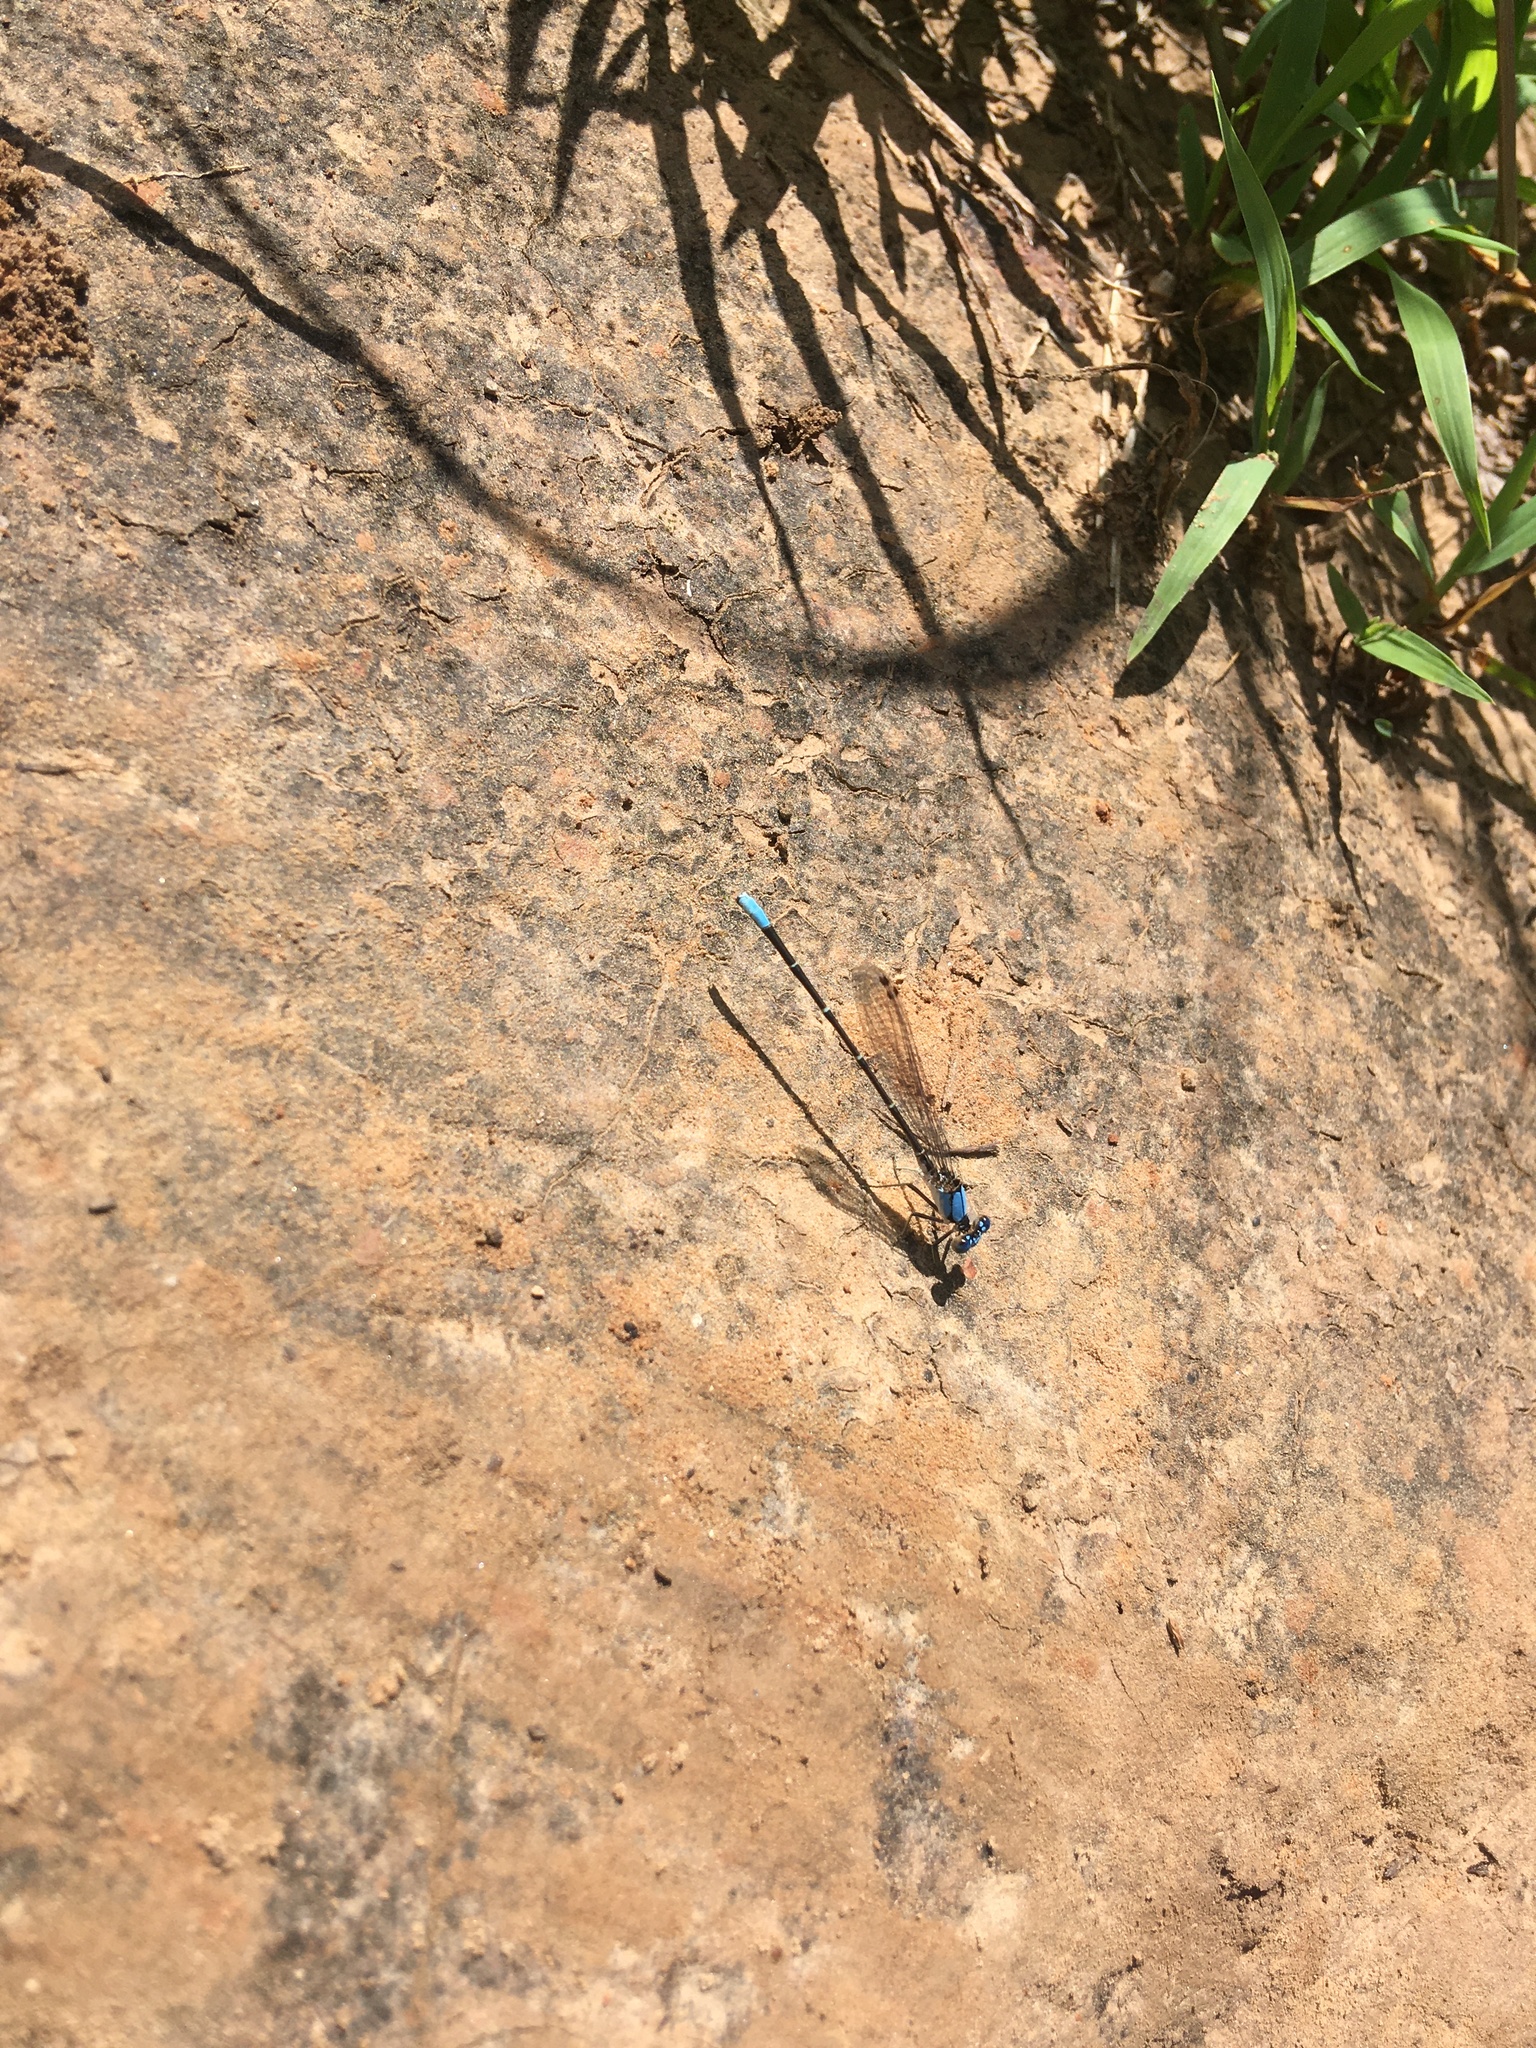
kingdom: Animalia
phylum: Arthropoda
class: Insecta
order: Odonata
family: Coenagrionidae
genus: Argia
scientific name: Argia apicalis
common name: Blue-fronted dancer
